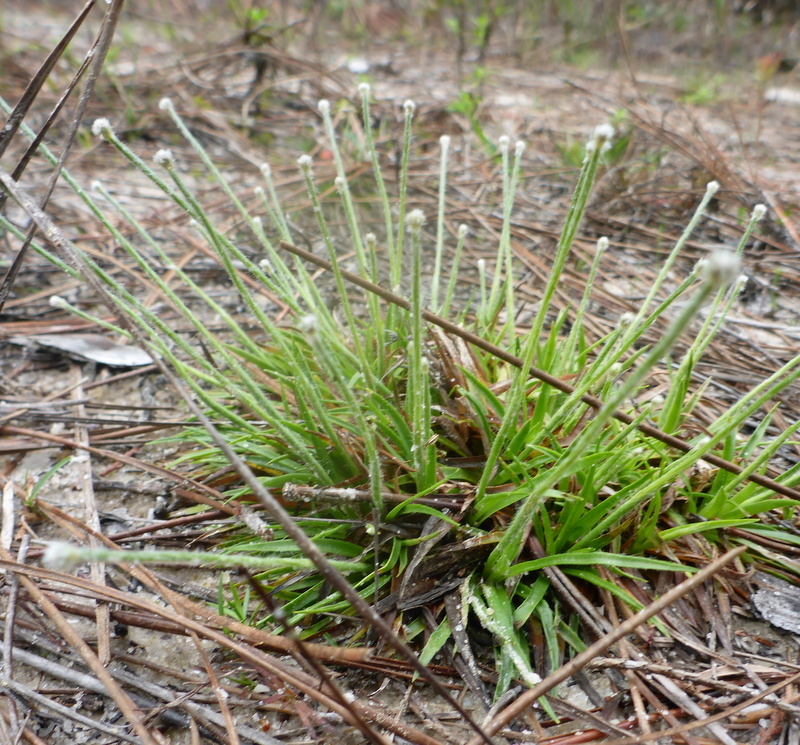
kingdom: Plantae
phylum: Tracheophyta
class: Liliopsida
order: Poales
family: Eriocaulaceae
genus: Paepalanthus
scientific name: Paepalanthus anceps
